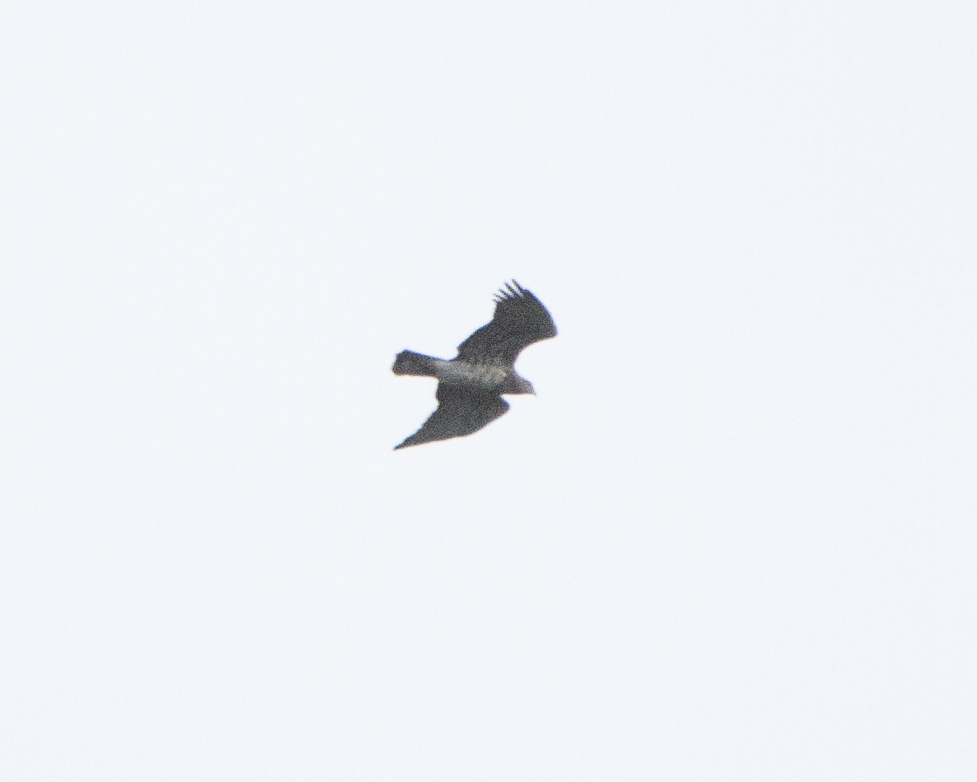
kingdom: Animalia
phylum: Chordata
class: Aves
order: Accipitriformes
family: Accipitridae
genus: Circaetus
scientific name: Circaetus gallicus
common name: Short-toed snake eagle
